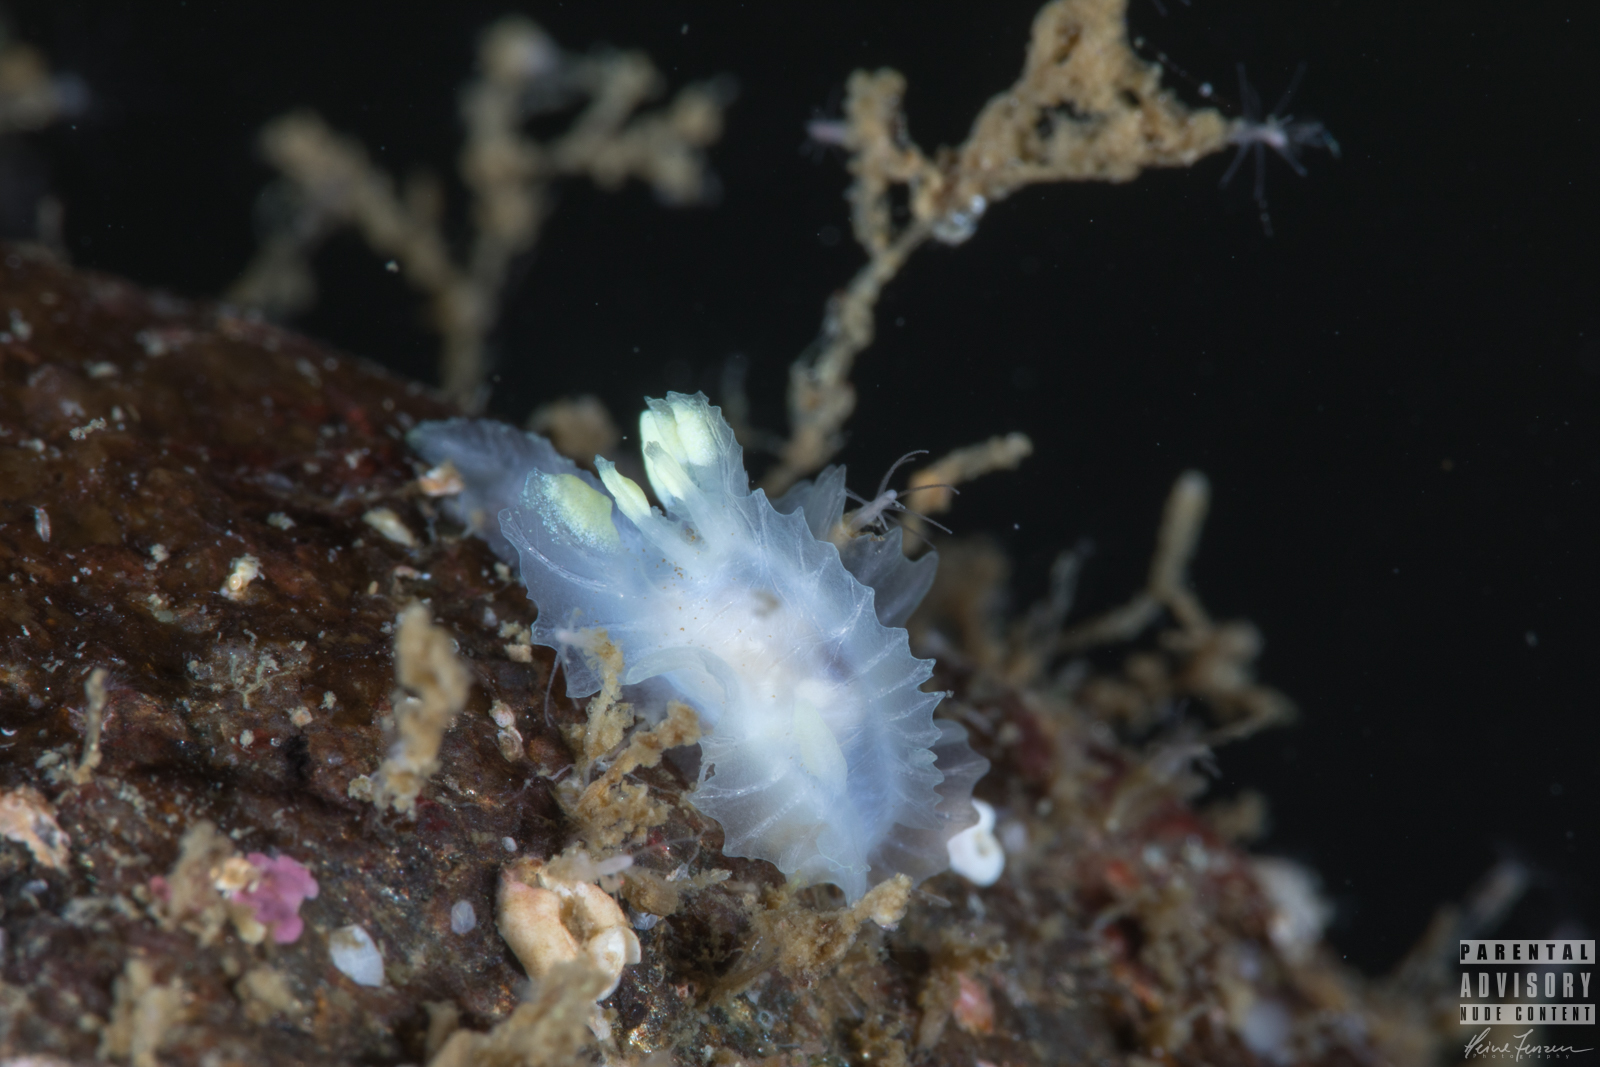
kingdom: Animalia
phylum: Mollusca
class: Gastropoda
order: Nudibranchia
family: Goniodorididae
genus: Lophodoris
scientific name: Lophodoris danielsseni
